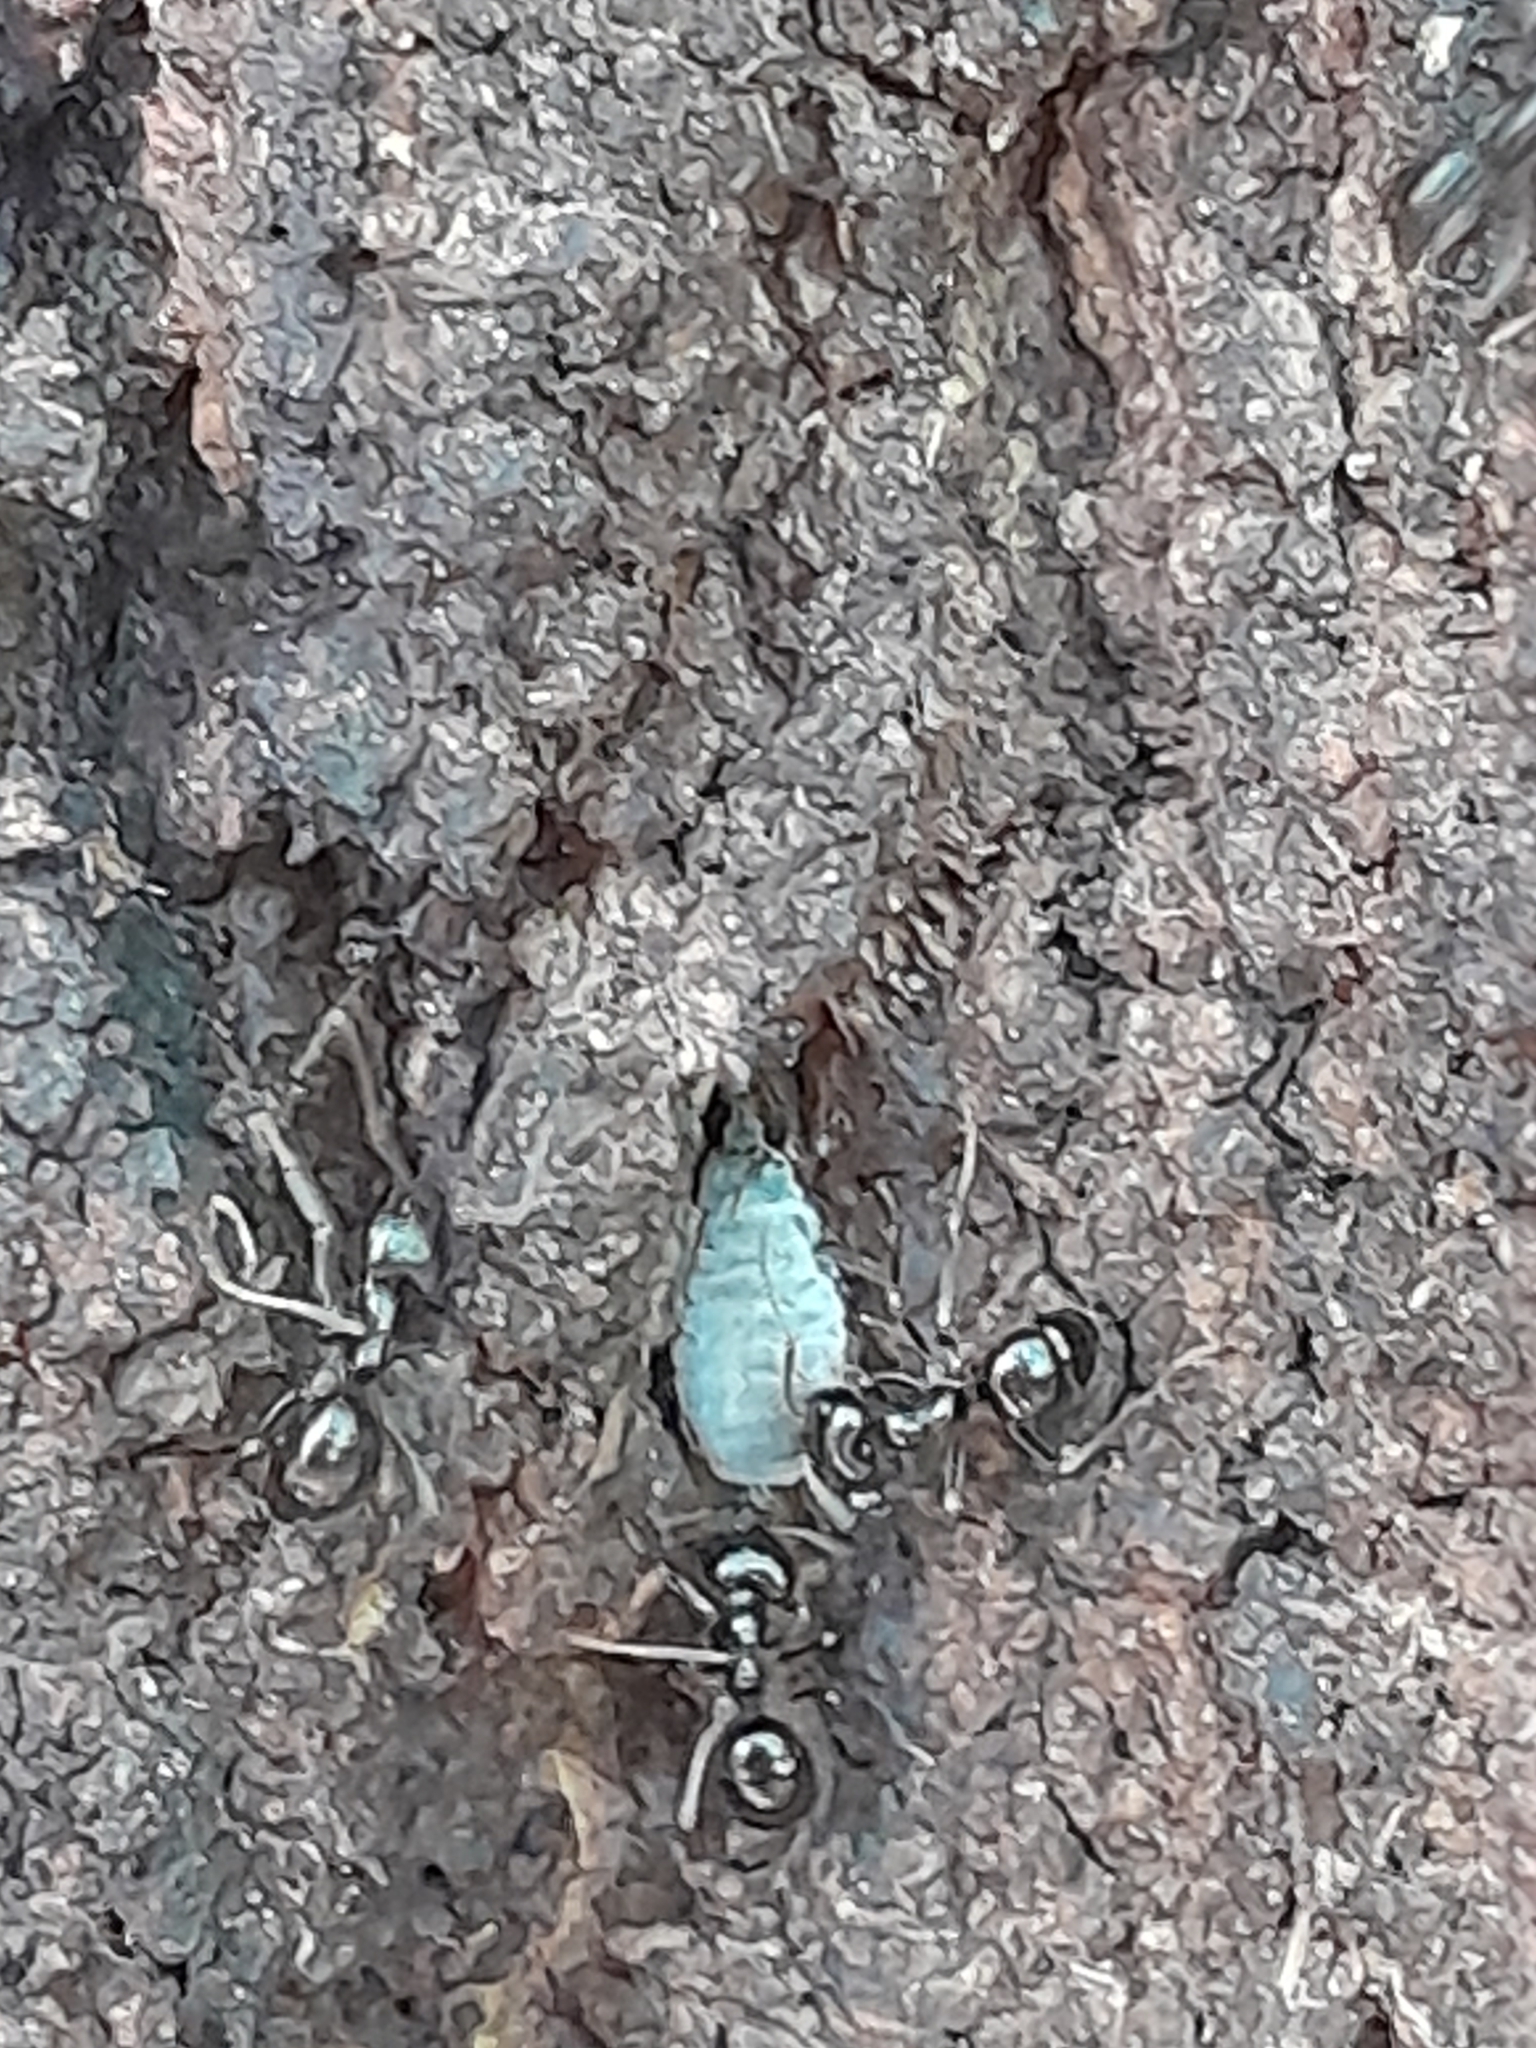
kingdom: Animalia
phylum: Arthropoda
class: Insecta
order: Hymenoptera
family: Formicidae
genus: Lasius
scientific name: Lasius fuliginosus
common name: Jet ant
